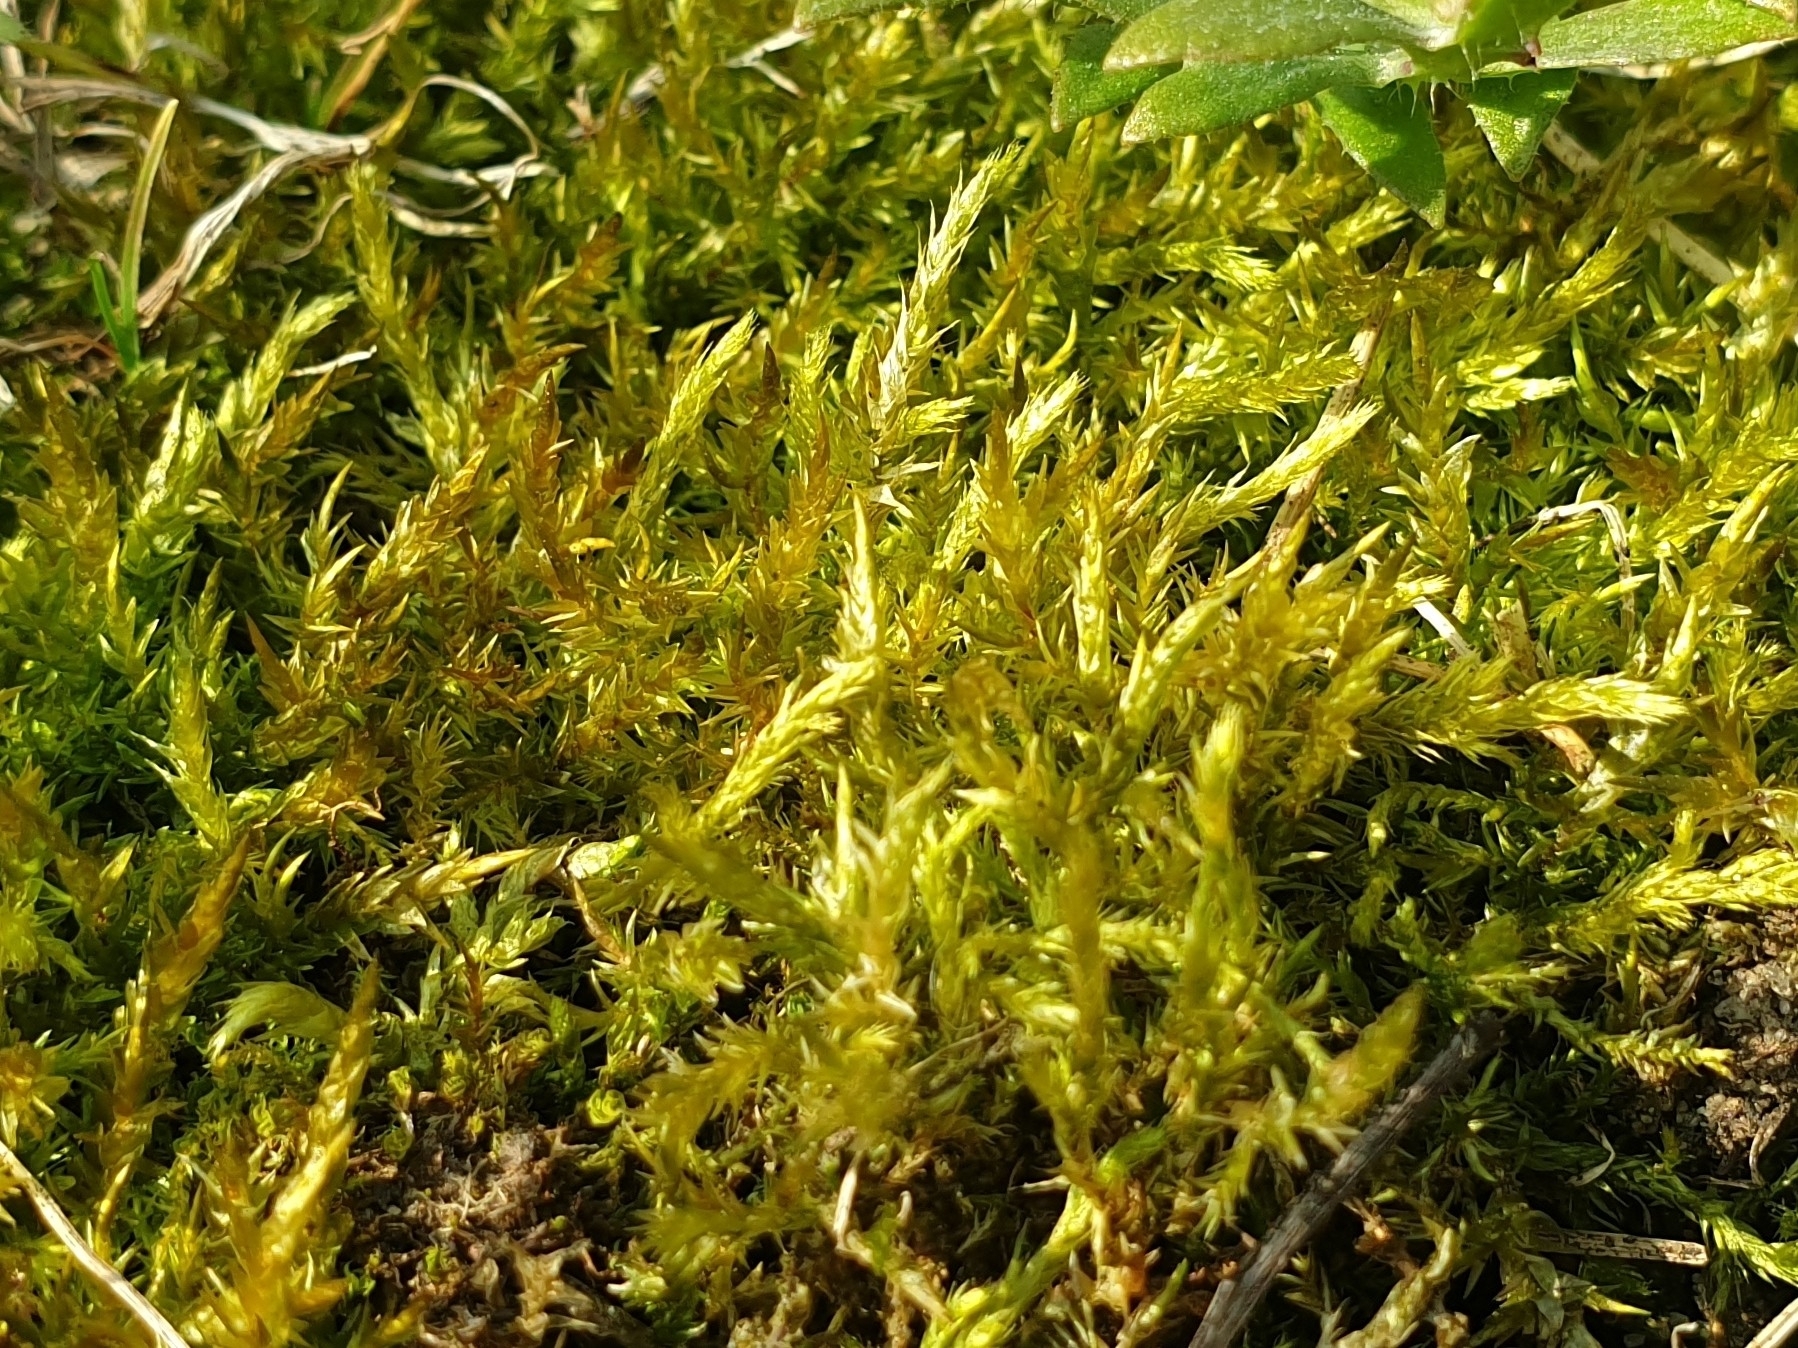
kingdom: Plantae
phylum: Bryophyta
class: Bryopsida
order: Hypnales
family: Pylaisiaceae
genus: Calliergonella
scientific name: Calliergonella cuspidata
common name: Common large wetland moss
